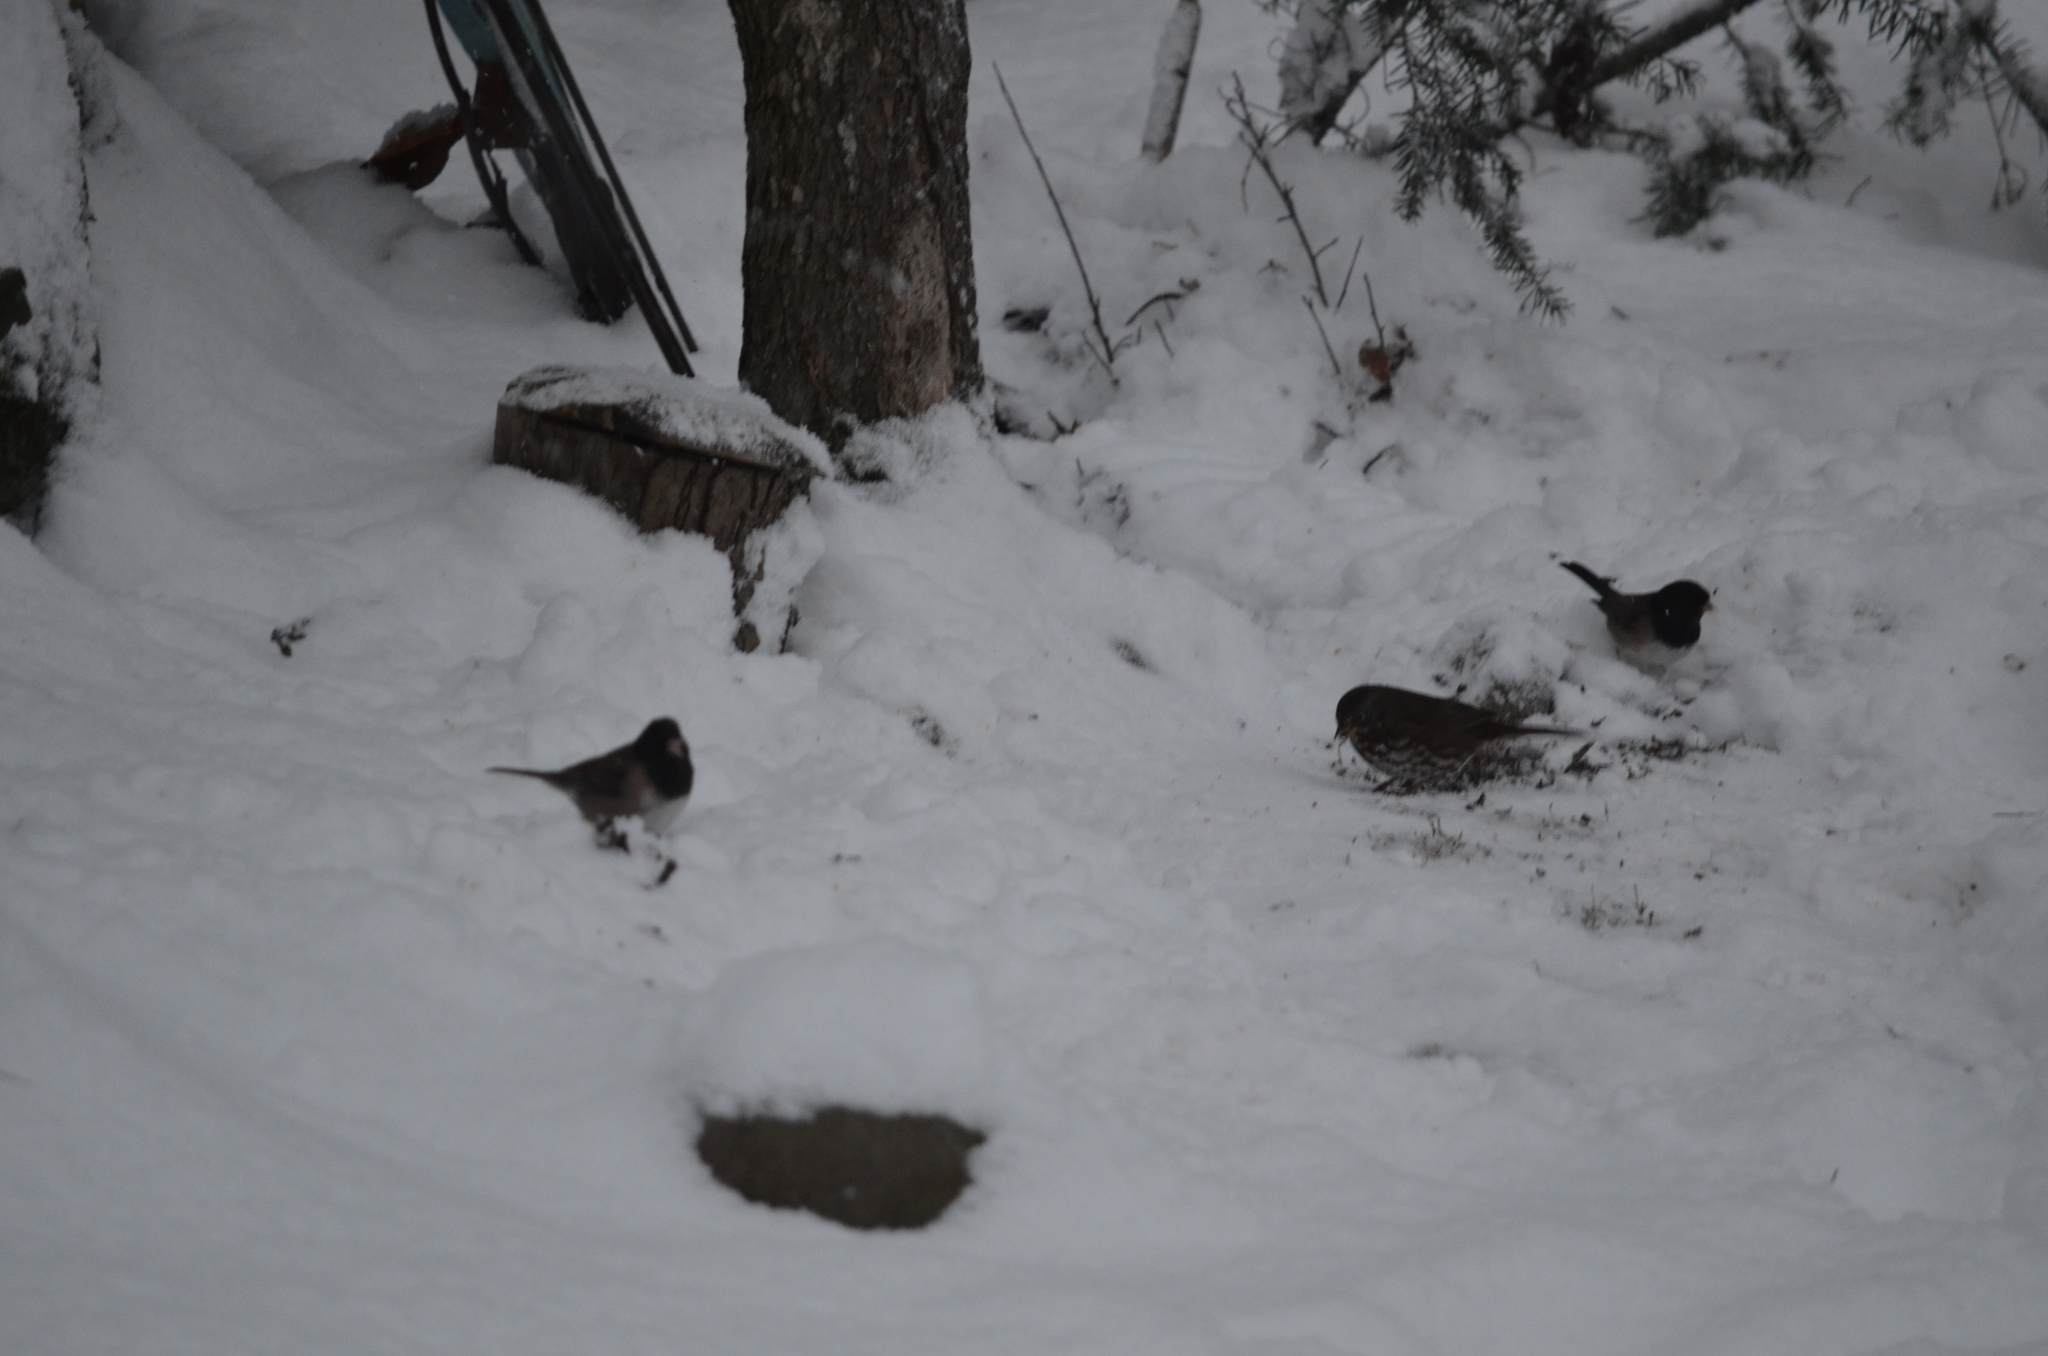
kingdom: Animalia
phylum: Chordata
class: Aves
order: Passeriformes
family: Passerellidae
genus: Junco
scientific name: Junco hyemalis
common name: Dark-eyed junco
